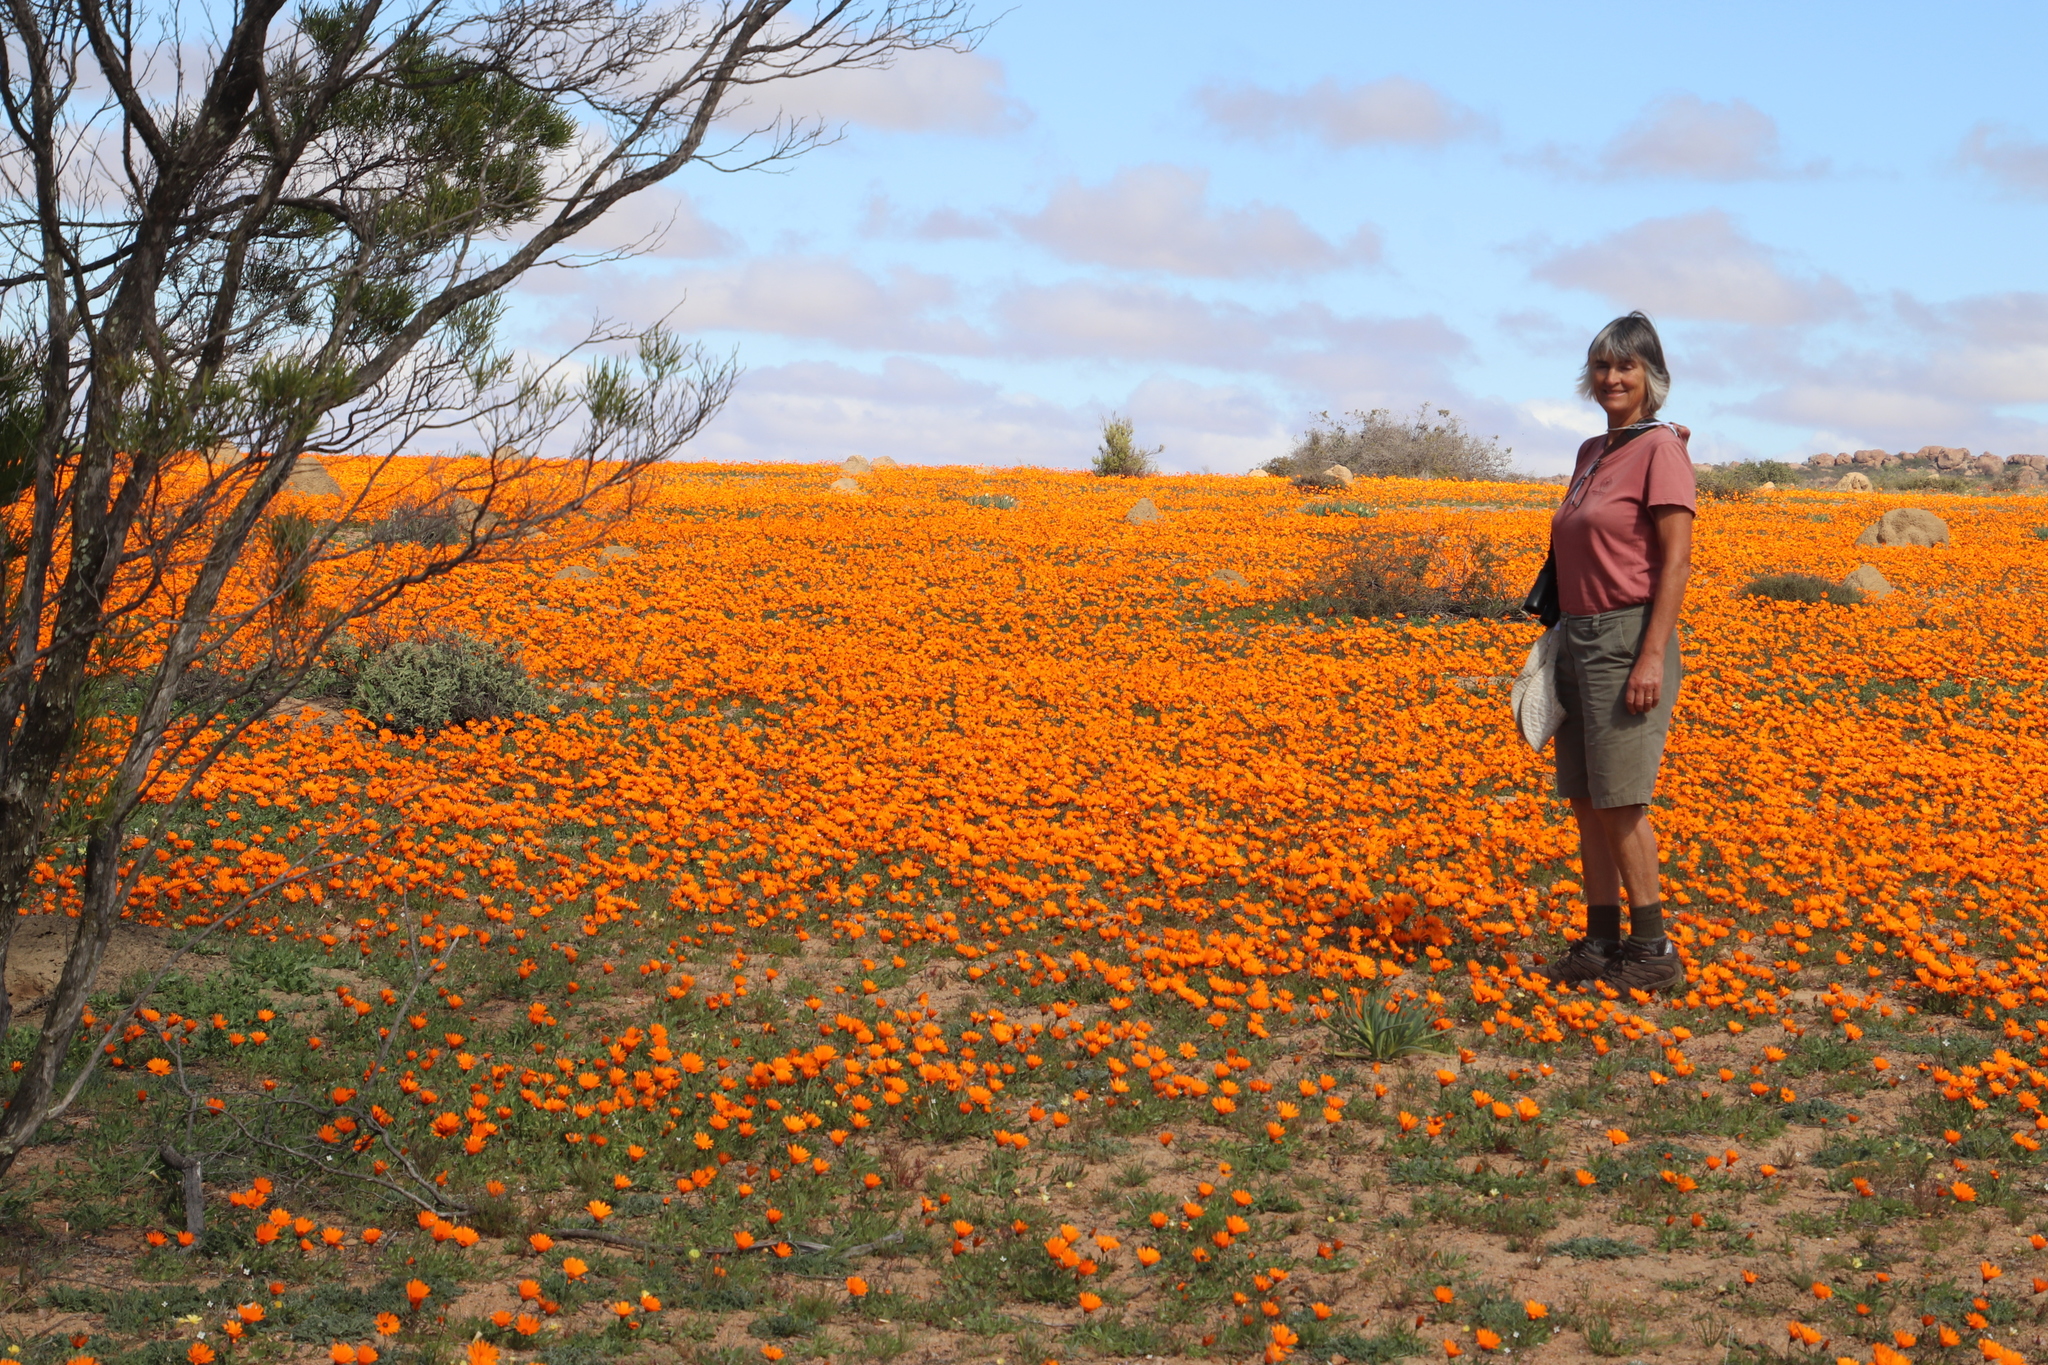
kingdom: Plantae
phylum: Tracheophyta
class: Magnoliopsida
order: Asterales
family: Asteraceae
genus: Dimorphotheca
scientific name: Dimorphotheca sinuata
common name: Glandular cape marigold
